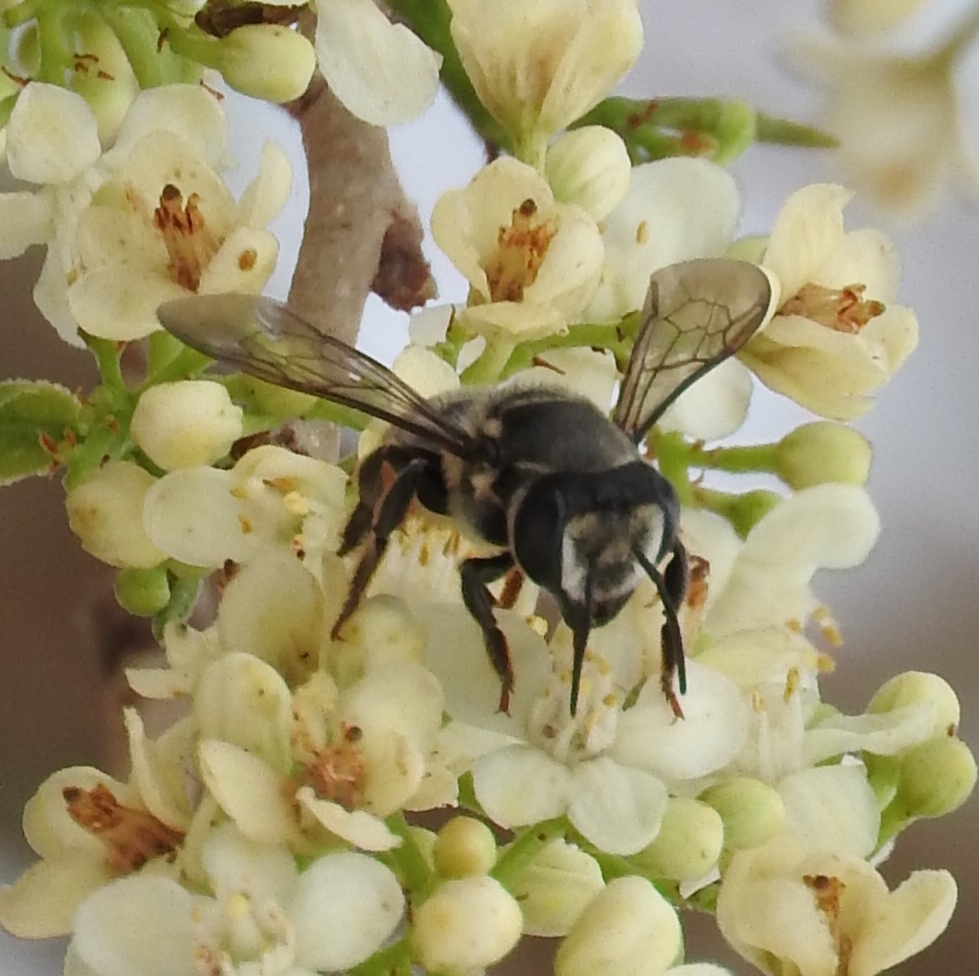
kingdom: Animalia
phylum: Arthropoda
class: Insecta
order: Hymenoptera
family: Megachilidae
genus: Megachile
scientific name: Megachile
